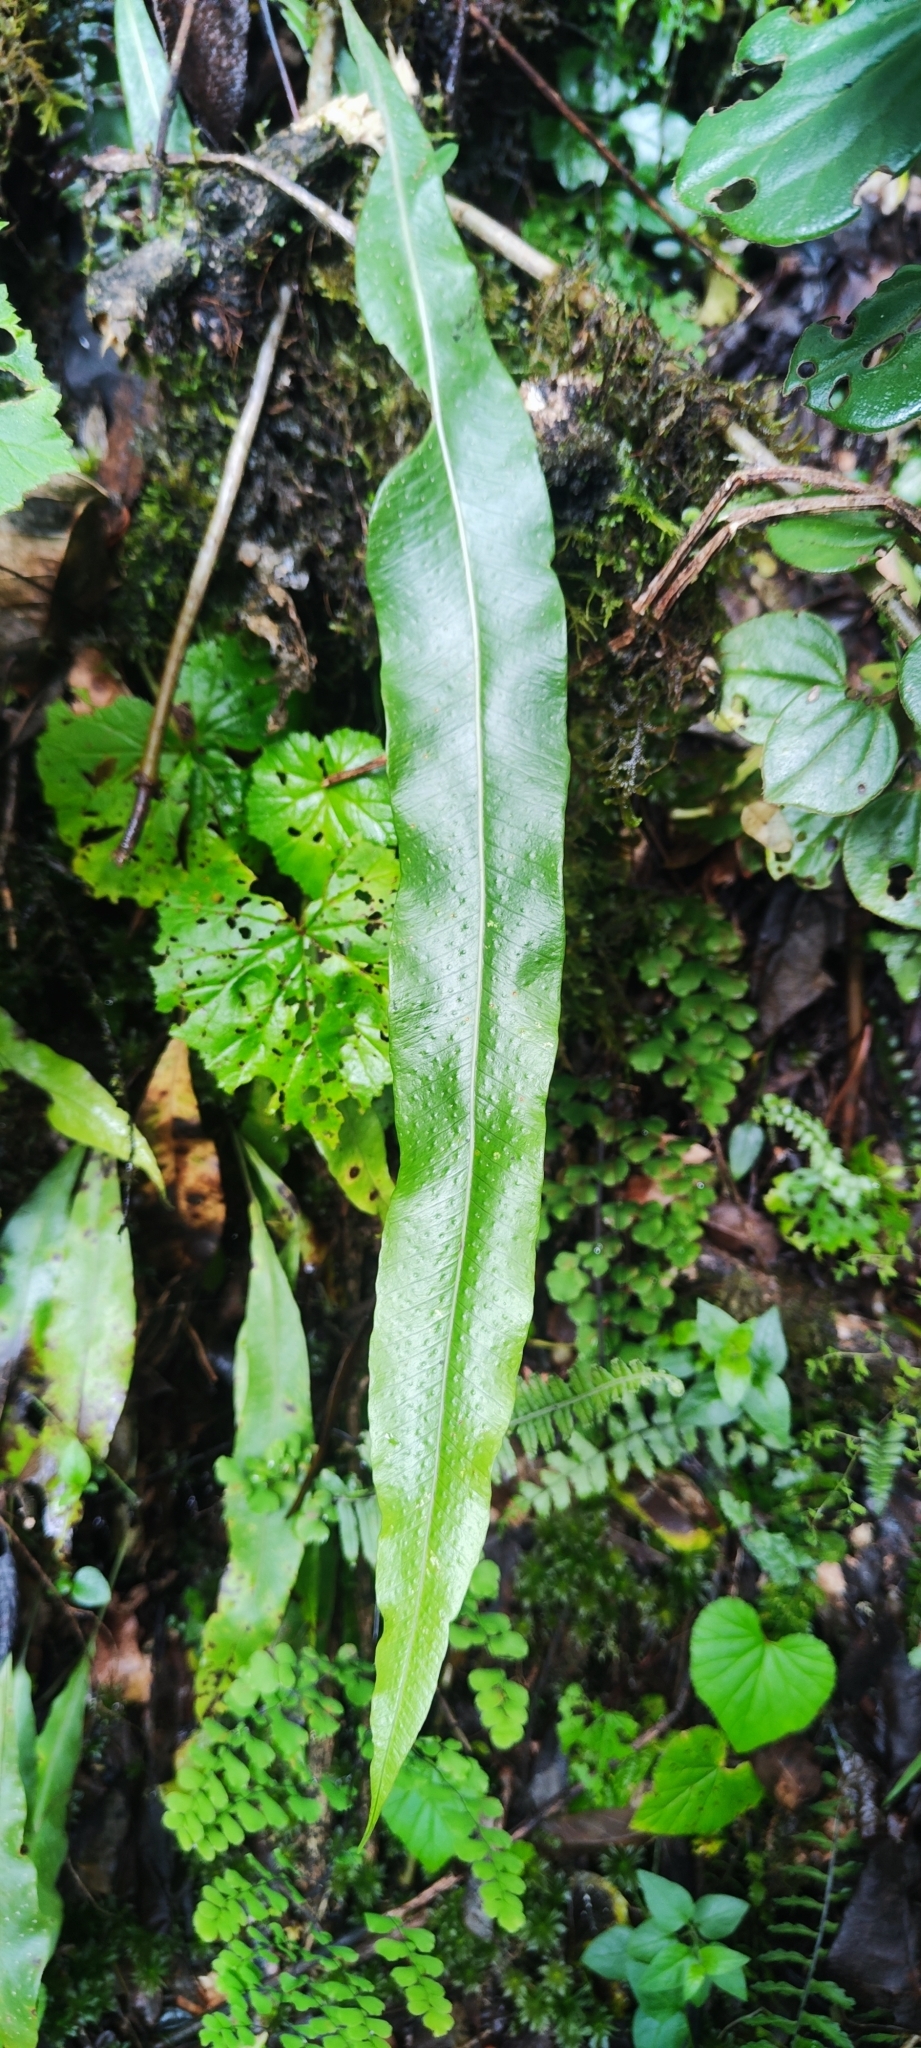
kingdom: Plantae
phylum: Tracheophyta
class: Polypodiopsida
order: Polypodiales
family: Polypodiaceae
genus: Campyloneurum
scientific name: Campyloneurum repens
